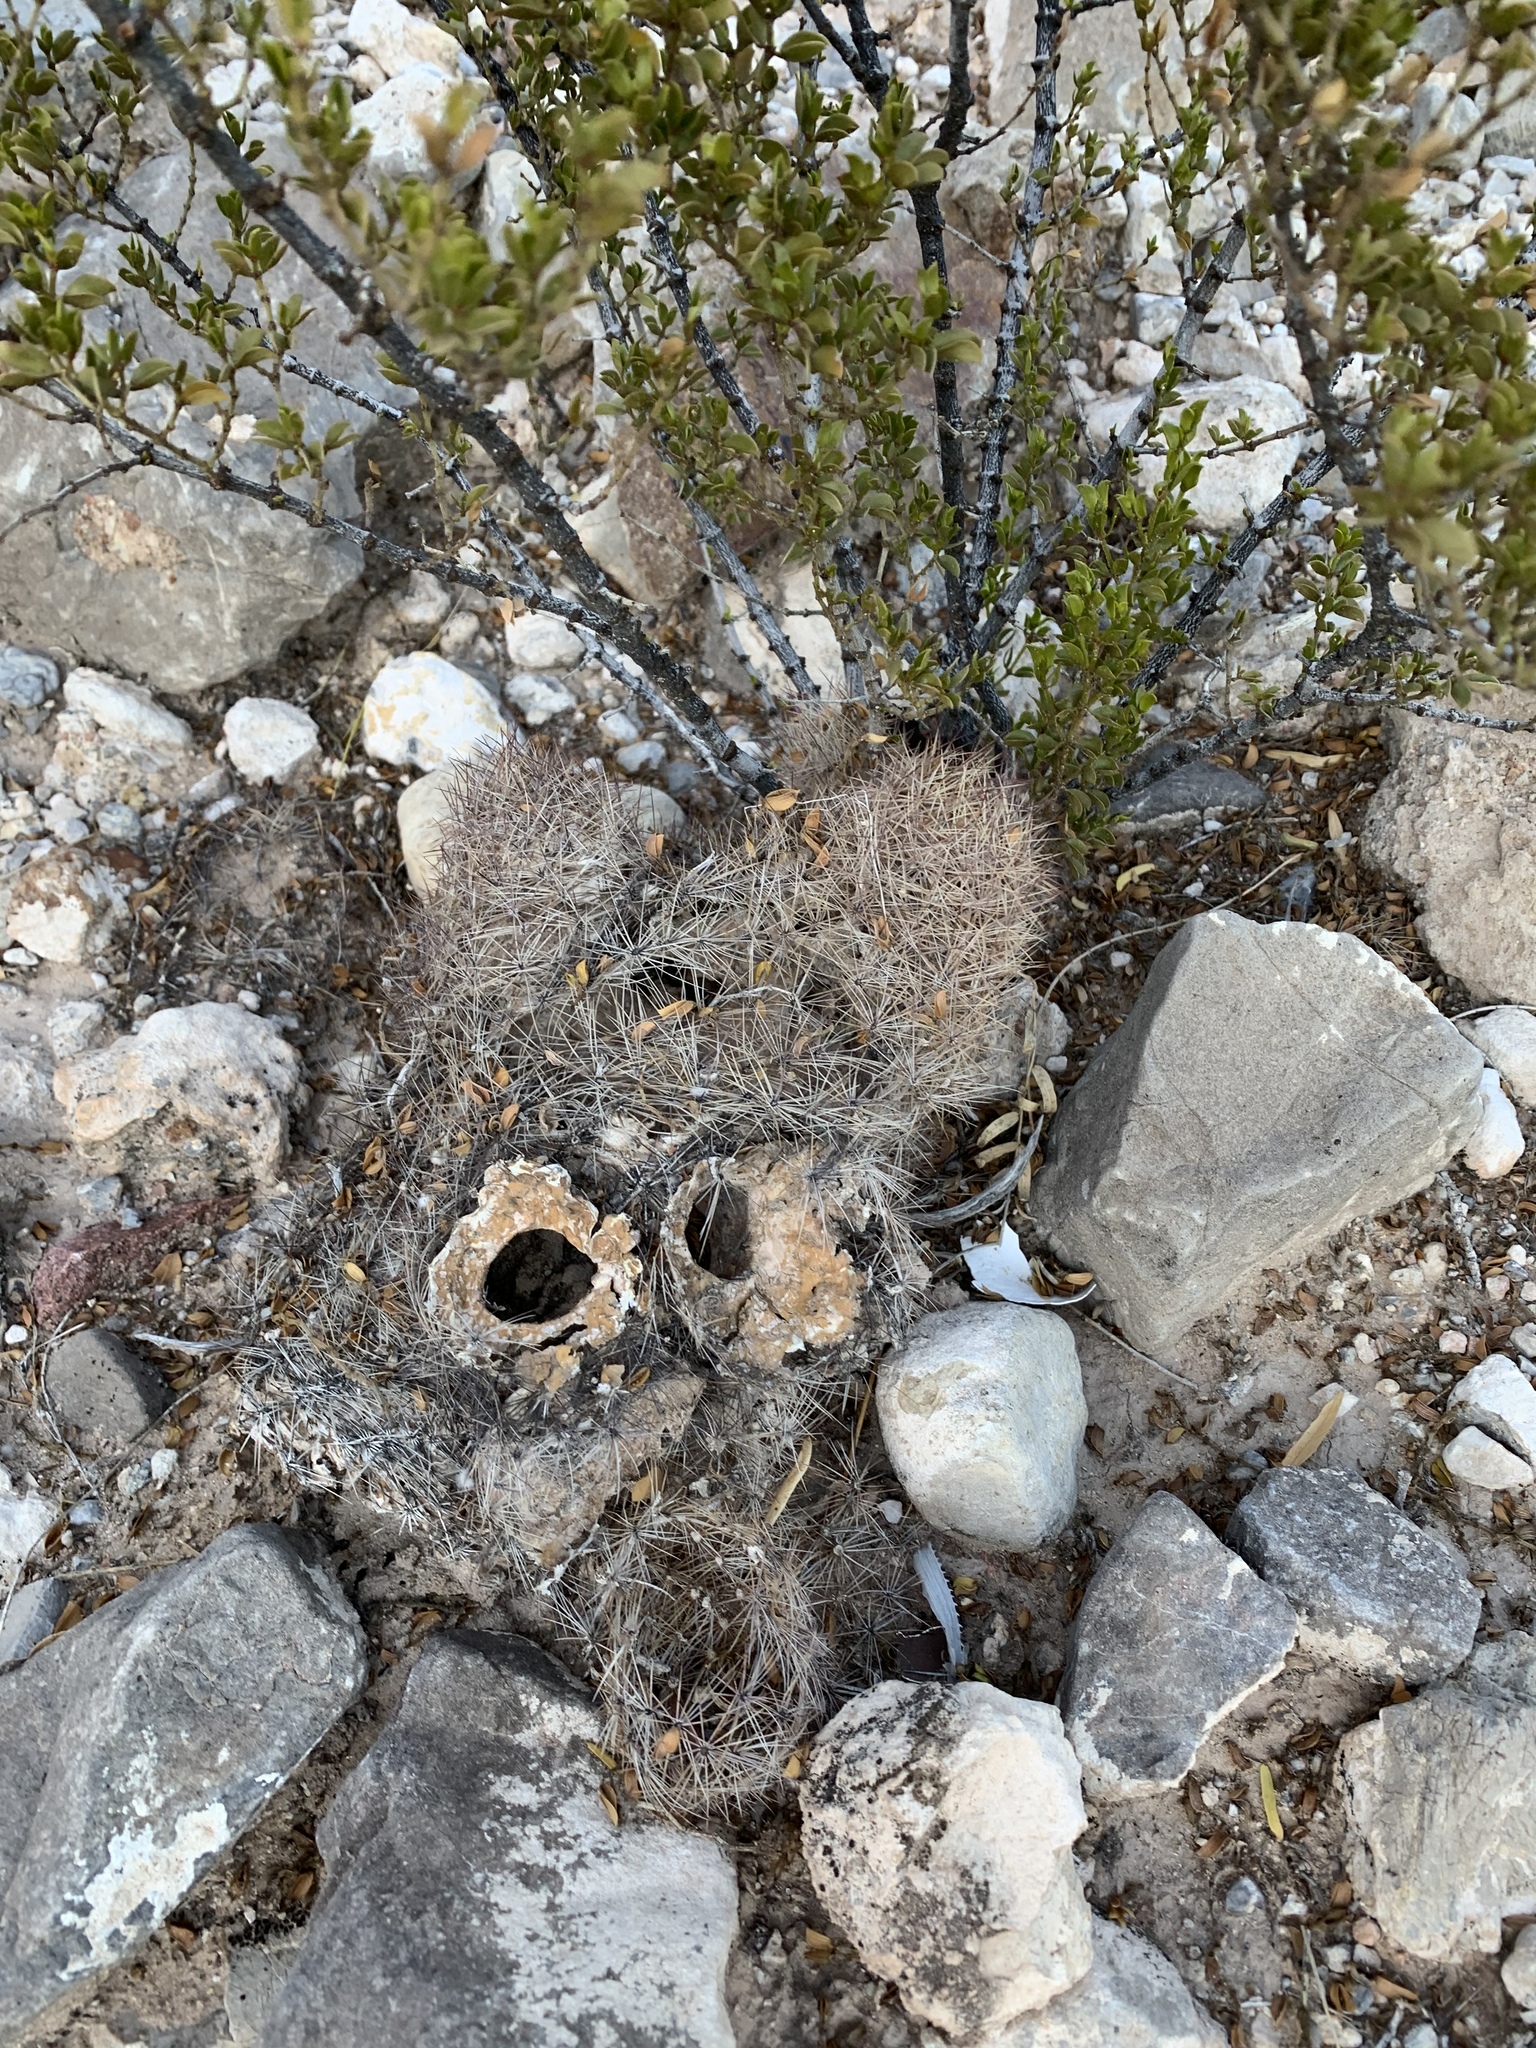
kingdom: Plantae
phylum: Tracheophyta
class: Magnoliopsida
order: Caryophyllales
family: Cactaceae
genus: Sclerocactus
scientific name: Sclerocactus intertextus
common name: White fish-hook cactus
